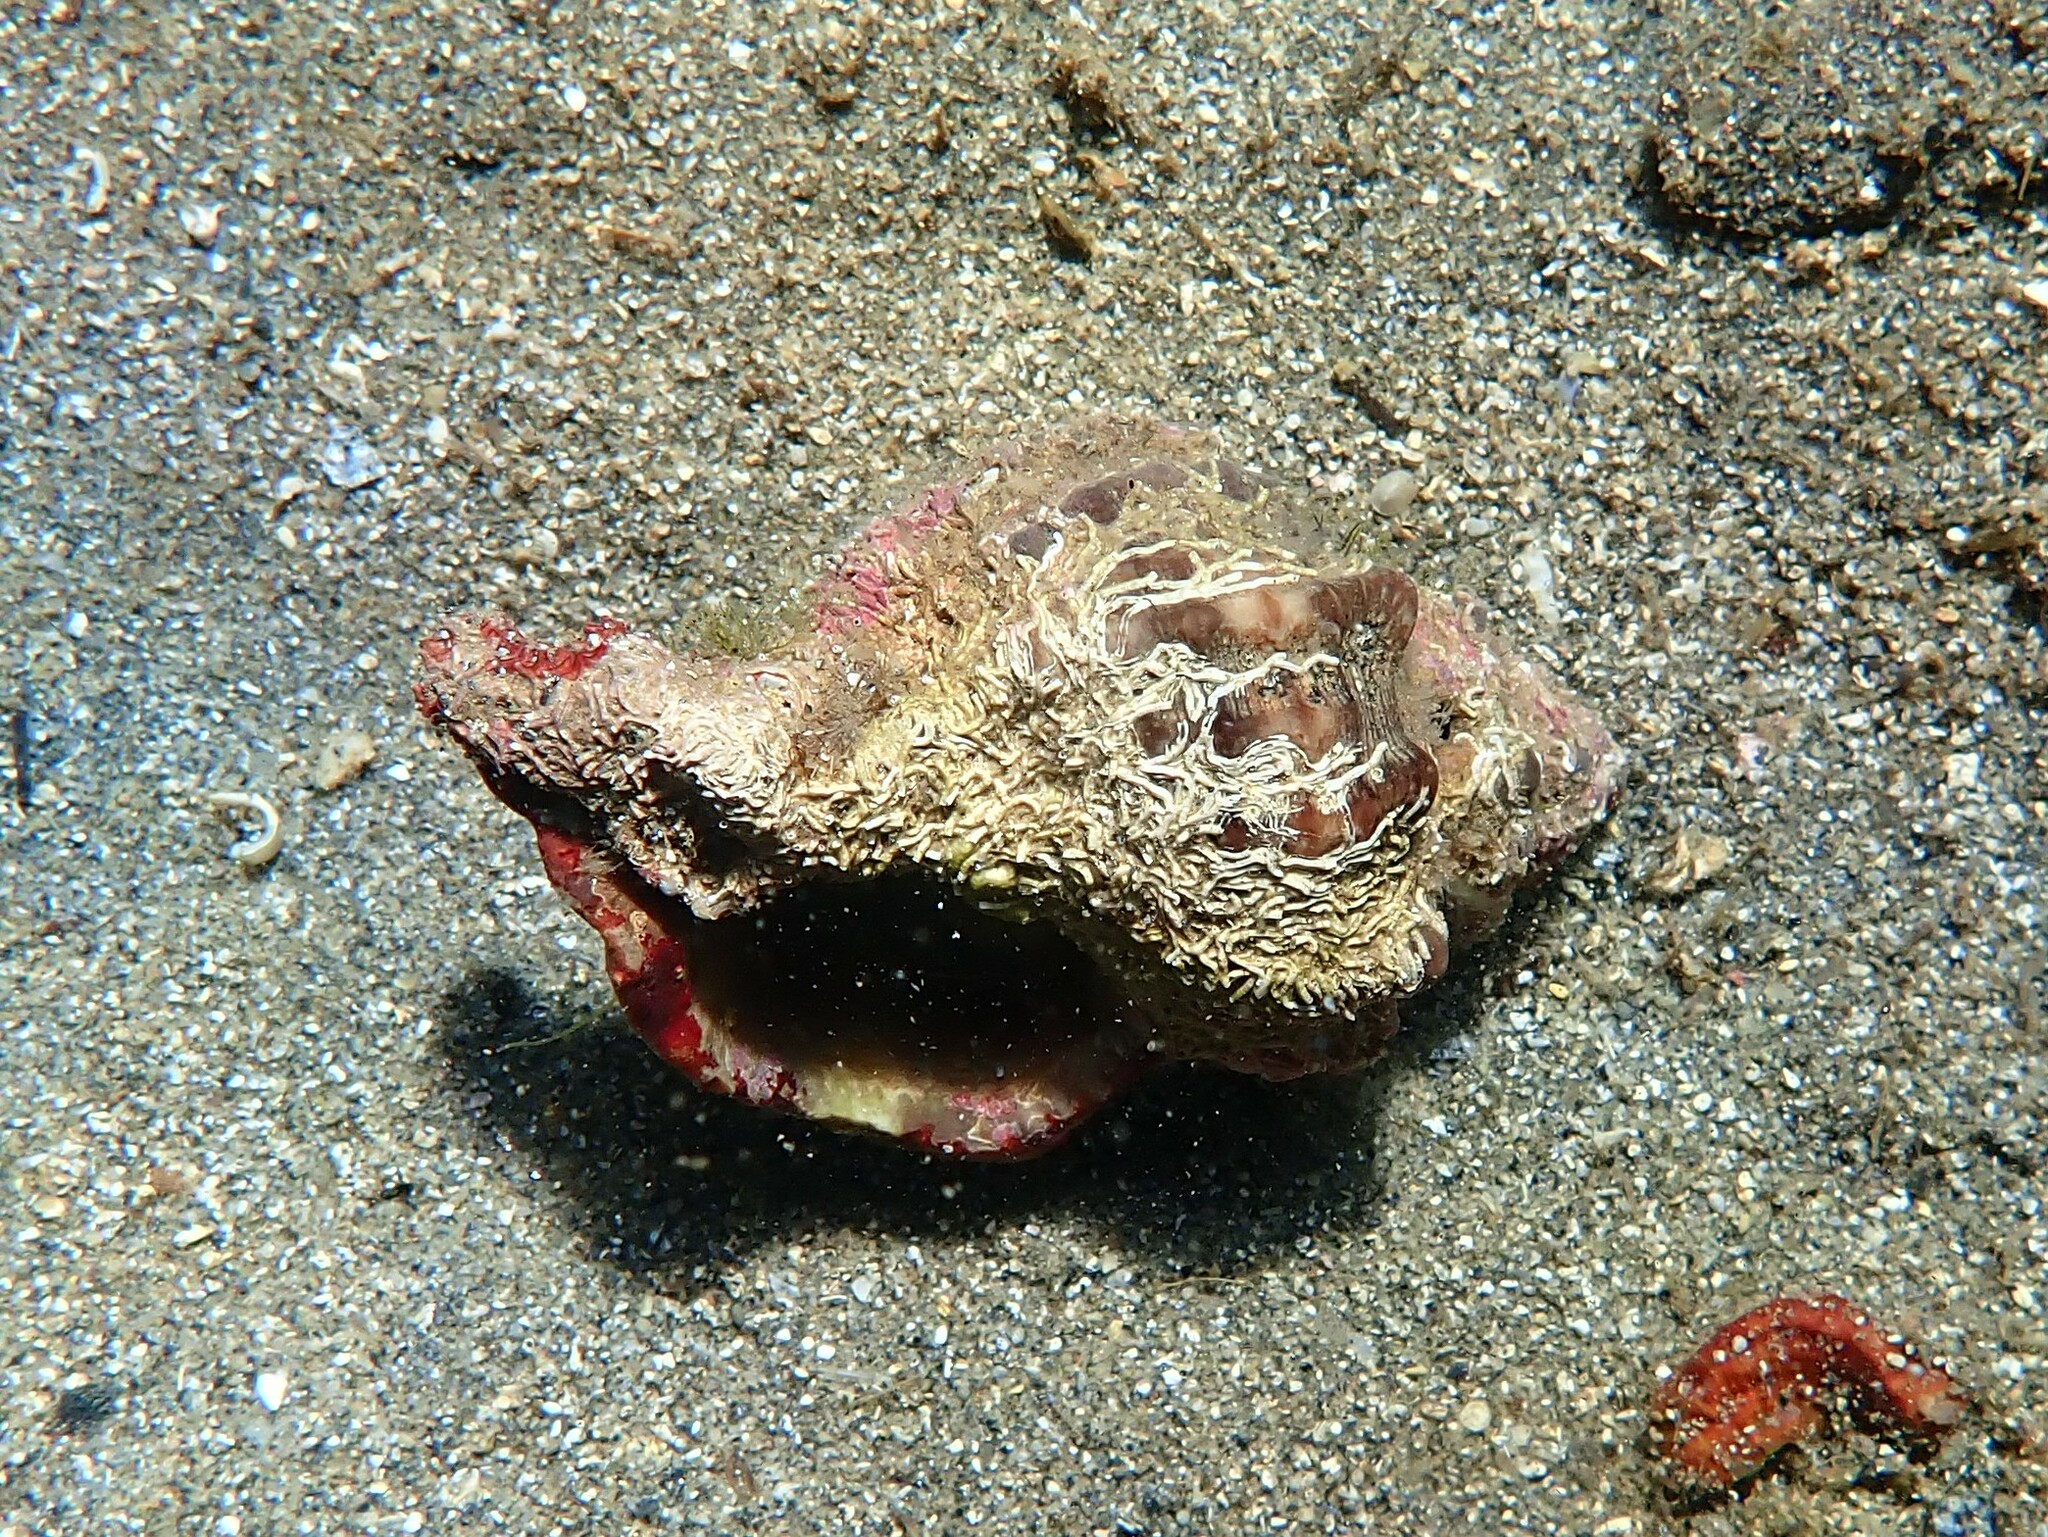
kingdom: Animalia
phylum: Mollusca
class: Gastropoda
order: Neogastropoda
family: Muricidae
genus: Hexaplex
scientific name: Hexaplex trunculus
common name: Banded dye-murex
